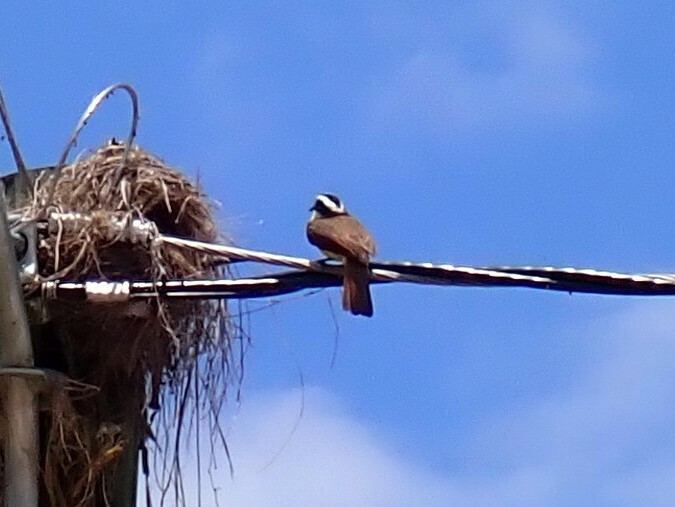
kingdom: Animalia
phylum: Chordata
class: Aves
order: Passeriformes
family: Tyrannidae
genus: Pitangus
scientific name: Pitangus sulphuratus
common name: Great kiskadee
